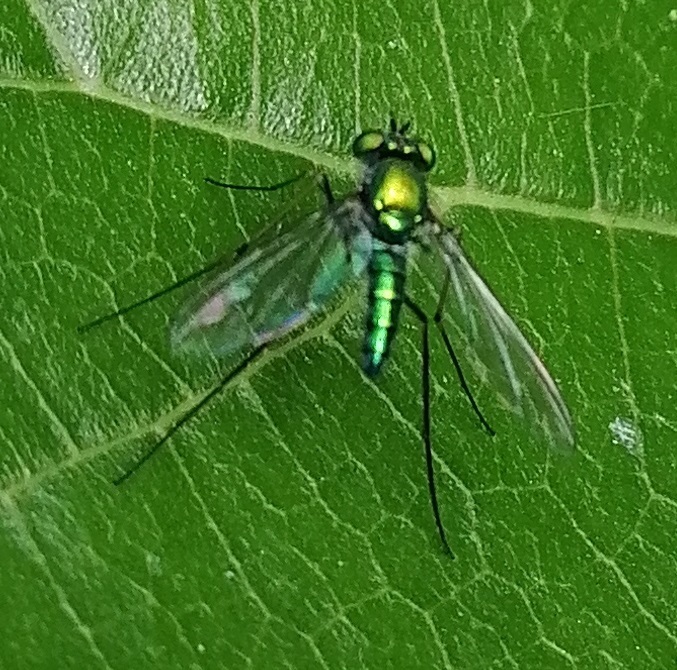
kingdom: Animalia
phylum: Arthropoda
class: Insecta
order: Diptera
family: Dolichopodidae
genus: Chrysosoma
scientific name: Chrysosoma
